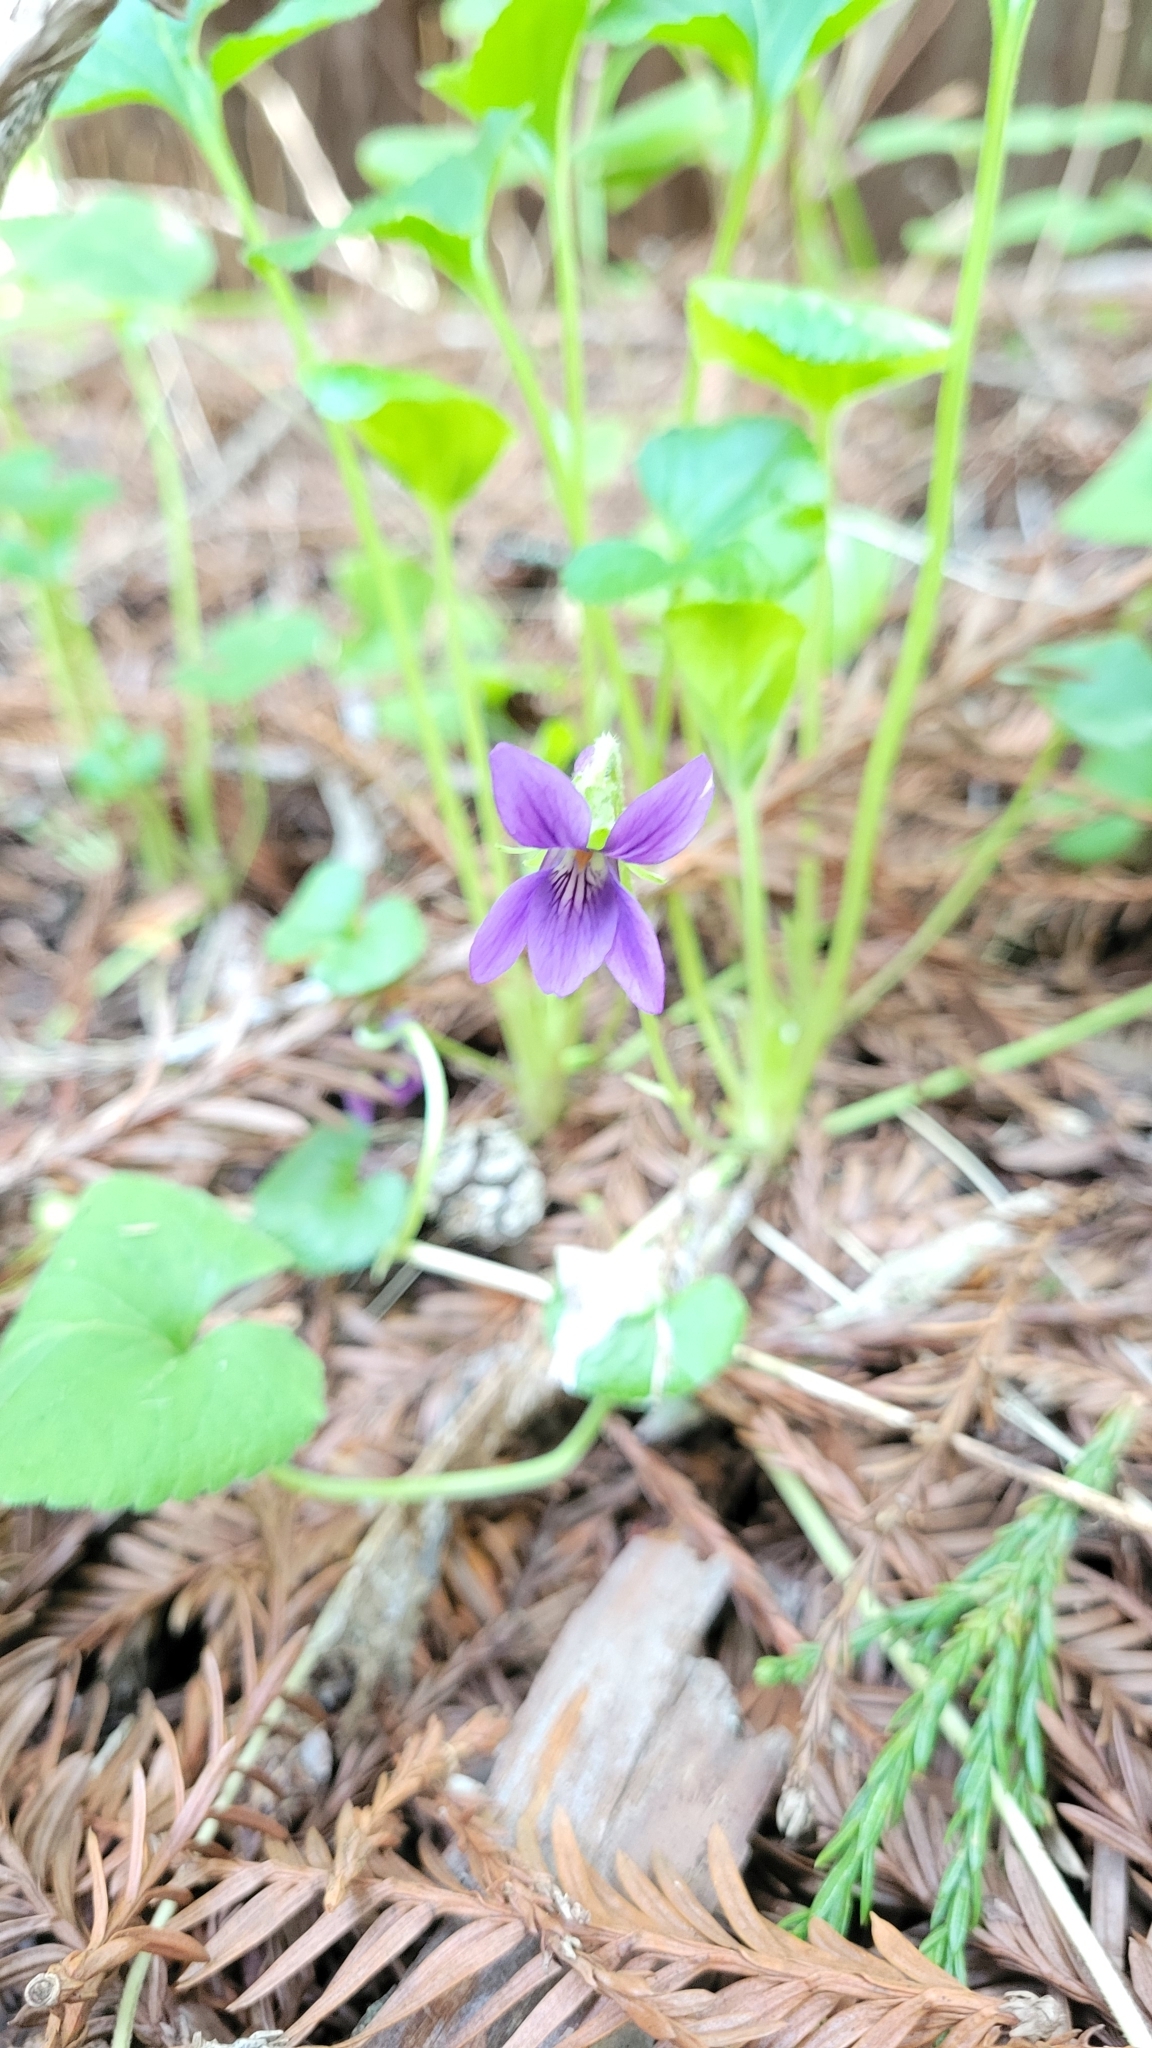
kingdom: Plantae
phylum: Tracheophyta
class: Magnoliopsida
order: Malpighiales
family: Violaceae
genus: Viola
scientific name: Viola odorata
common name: Sweet violet
